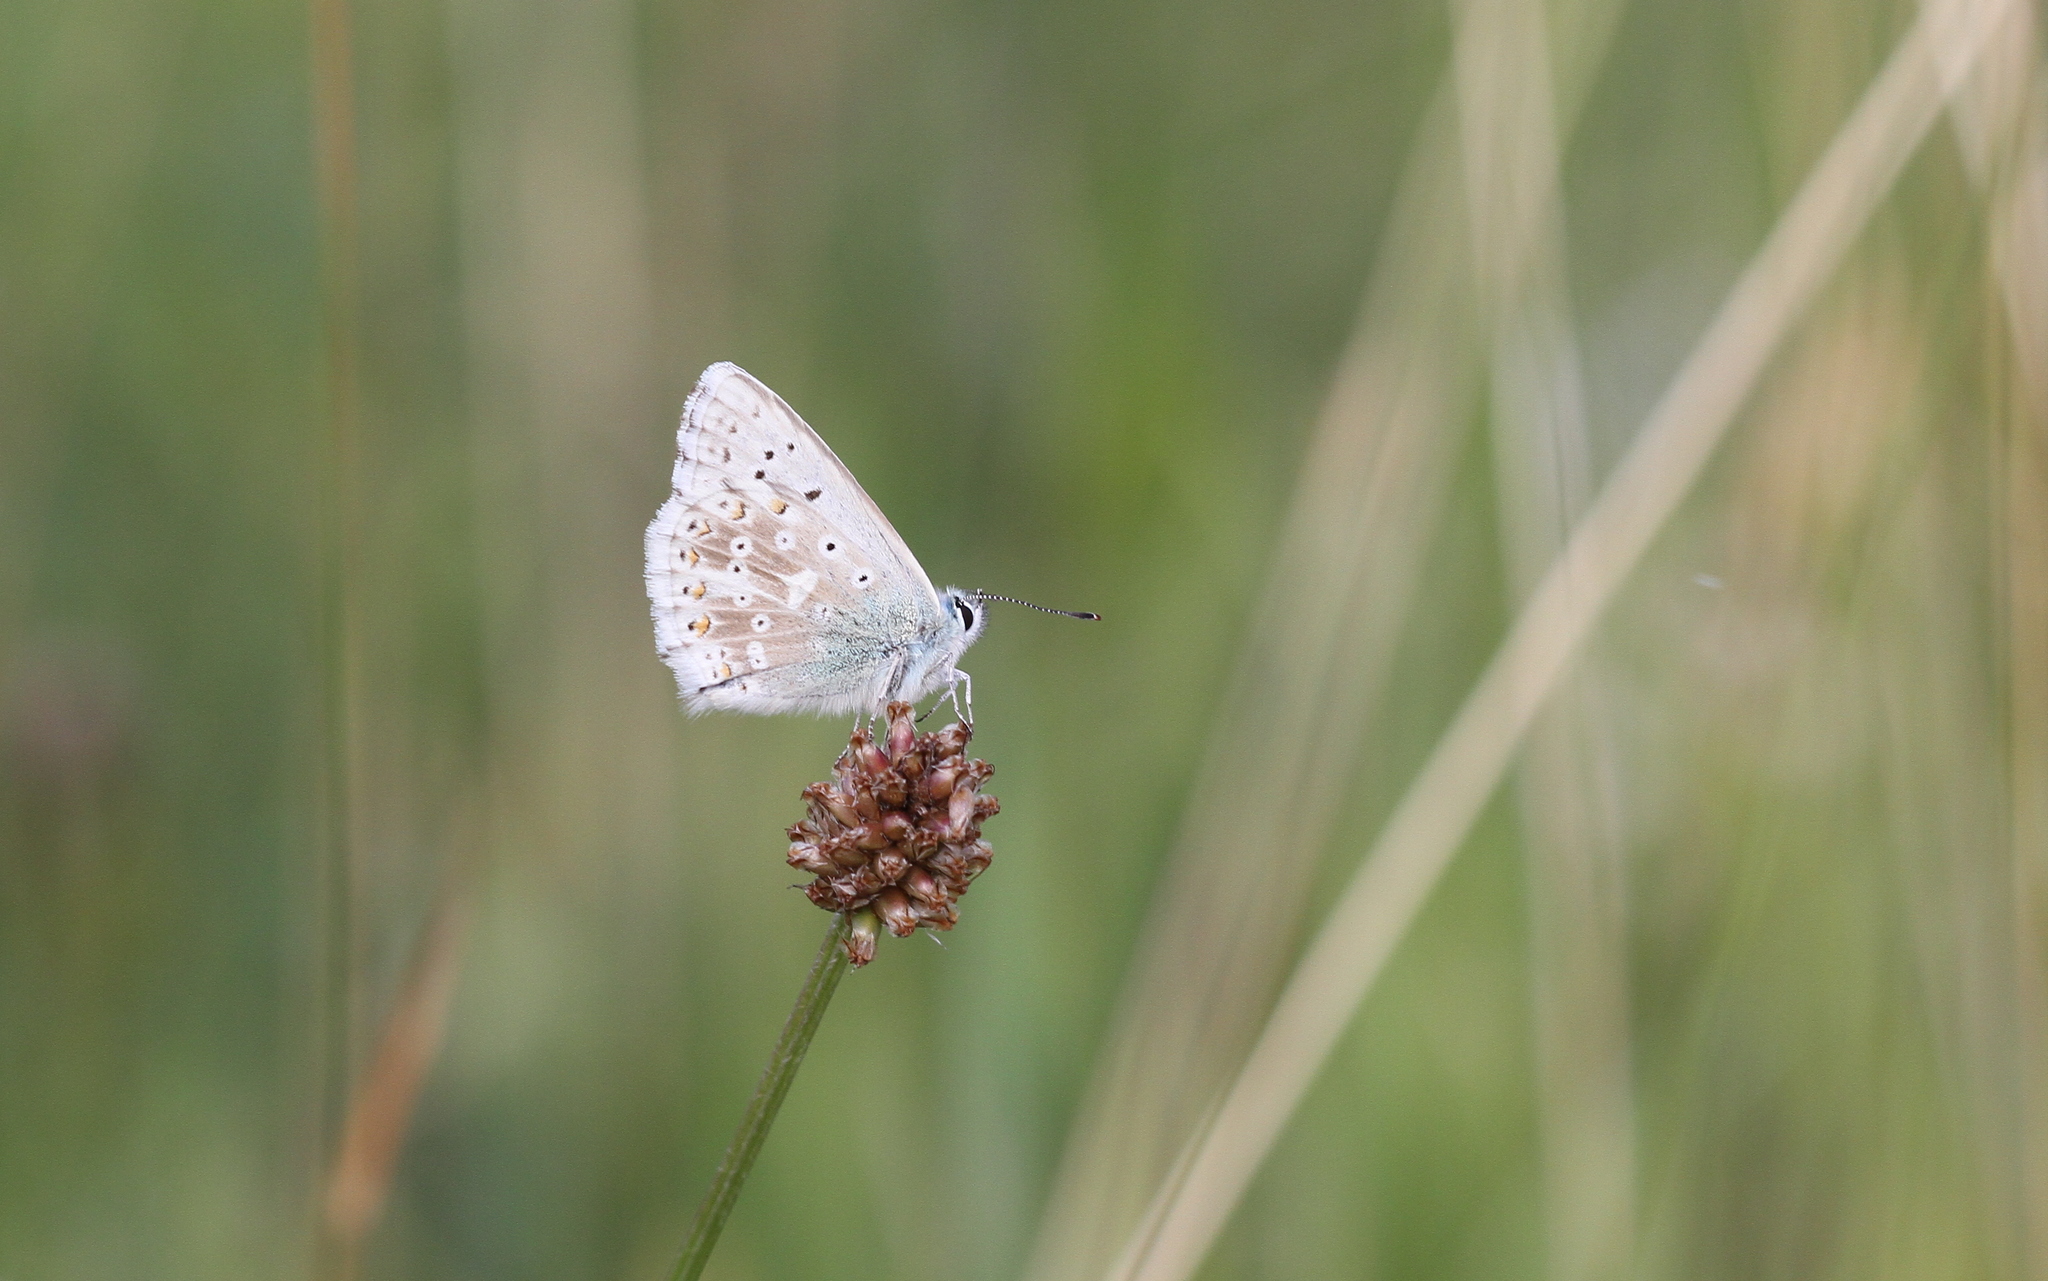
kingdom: Animalia
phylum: Arthropoda
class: Insecta
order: Lepidoptera
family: Lycaenidae
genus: Lysandra
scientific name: Lysandra coridon
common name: Chalkhill blue
